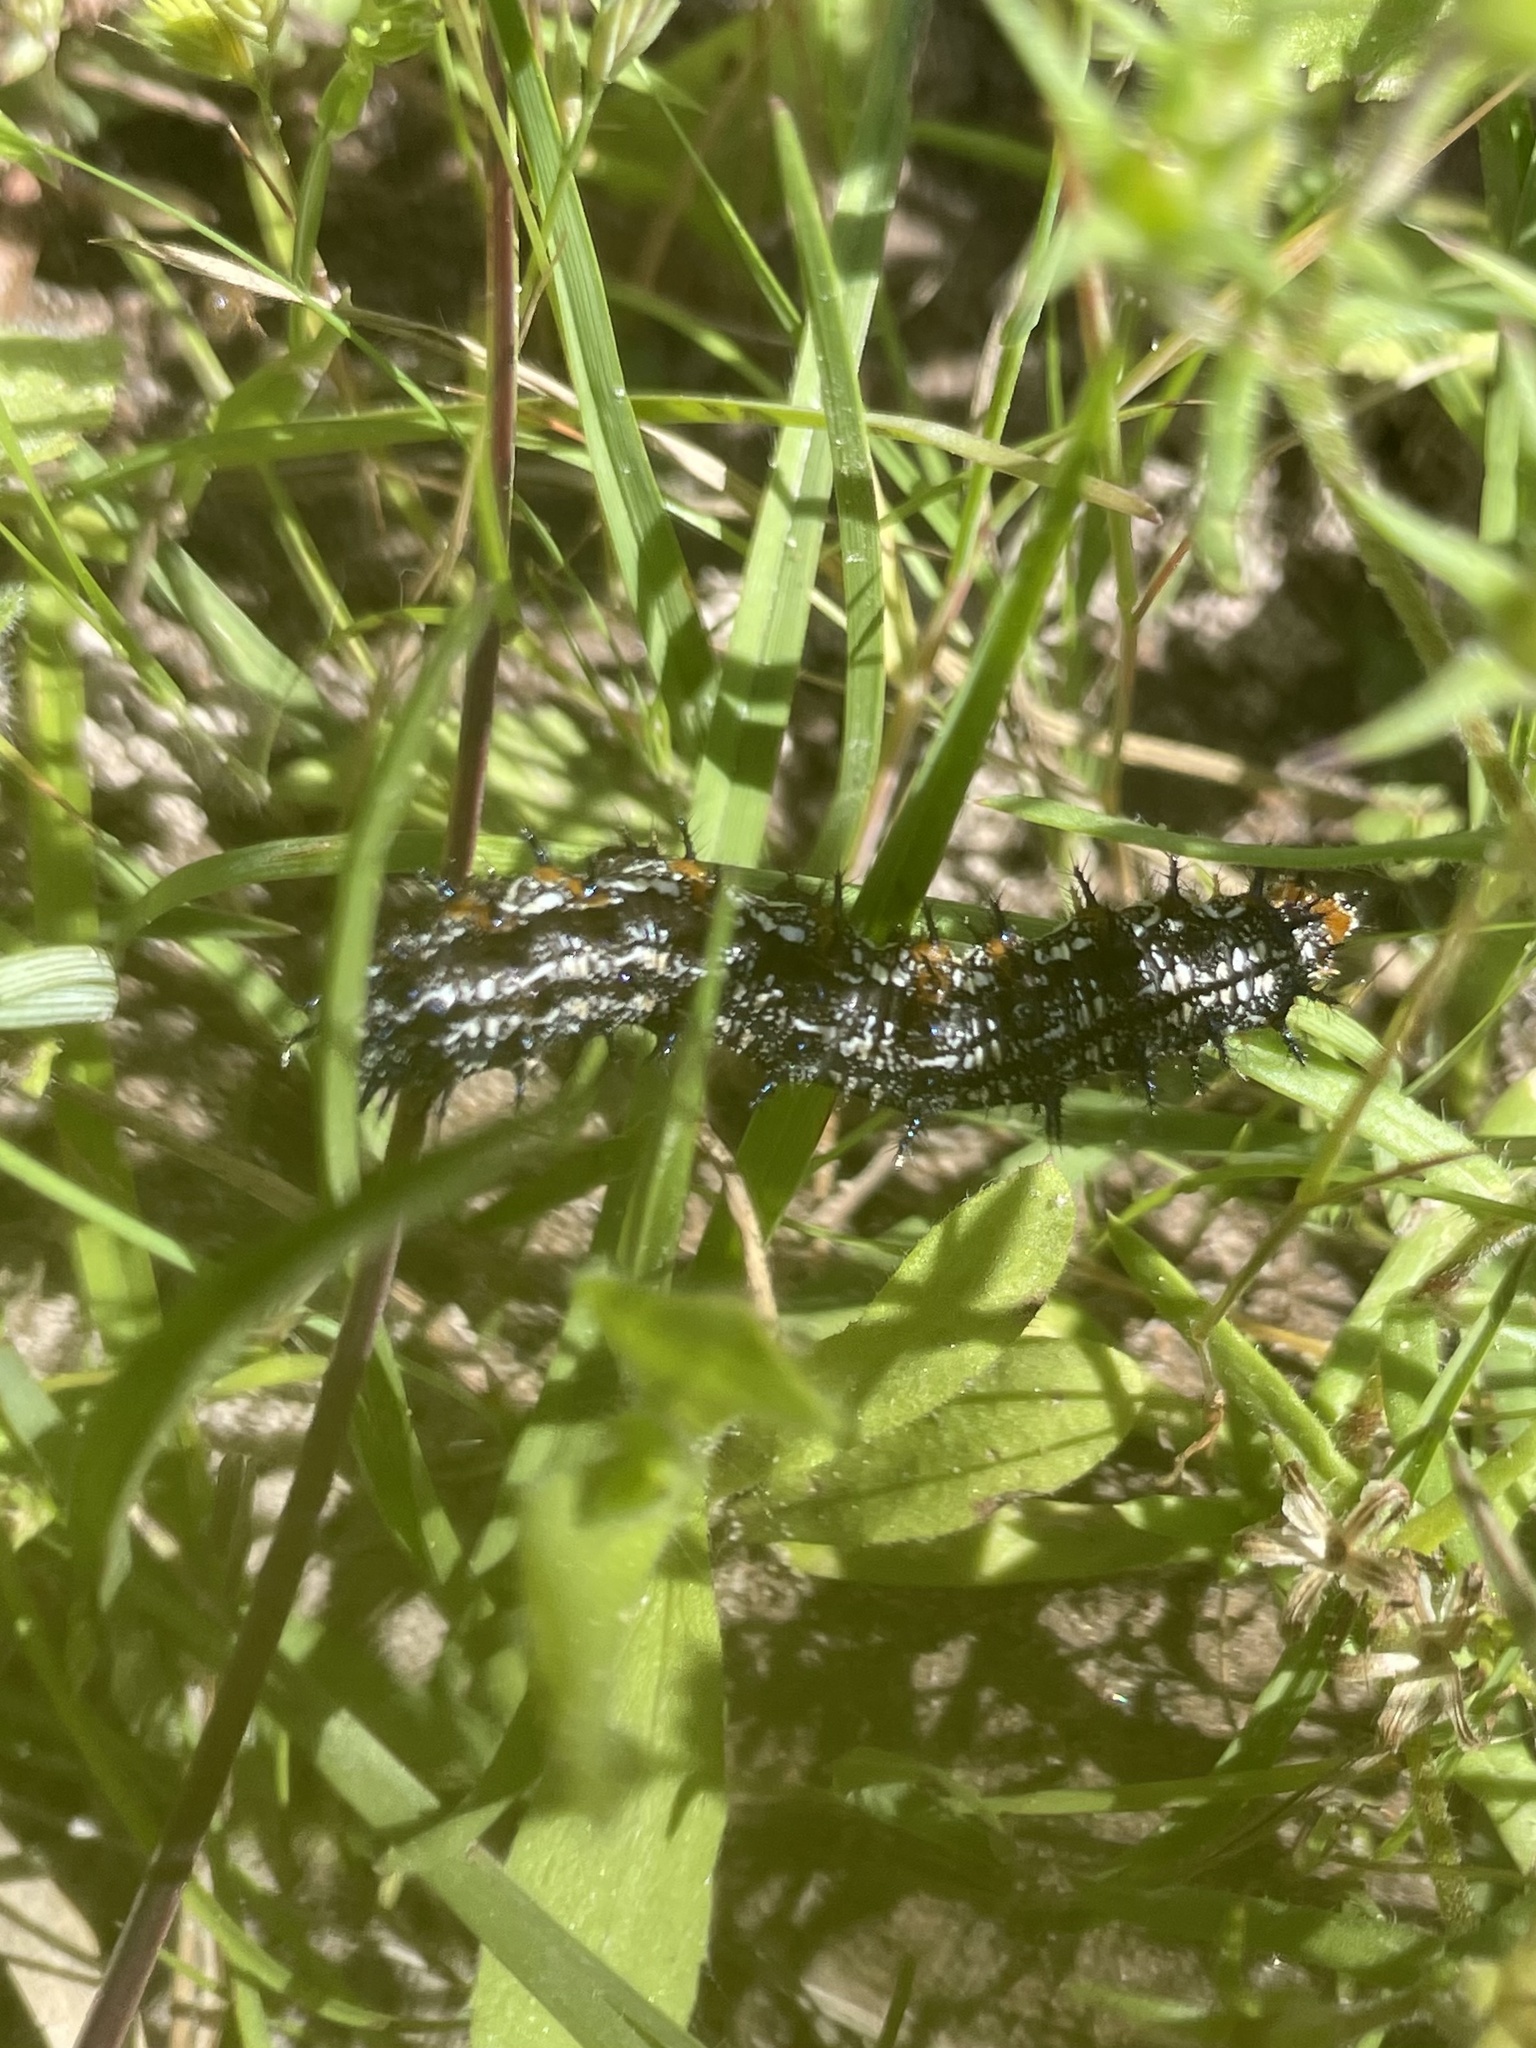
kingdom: Animalia
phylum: Arthropoda
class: Insecta
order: Lepidoptera
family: Nymphalidae
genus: Junonia
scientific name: Junonia coenia
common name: Common buckeye
